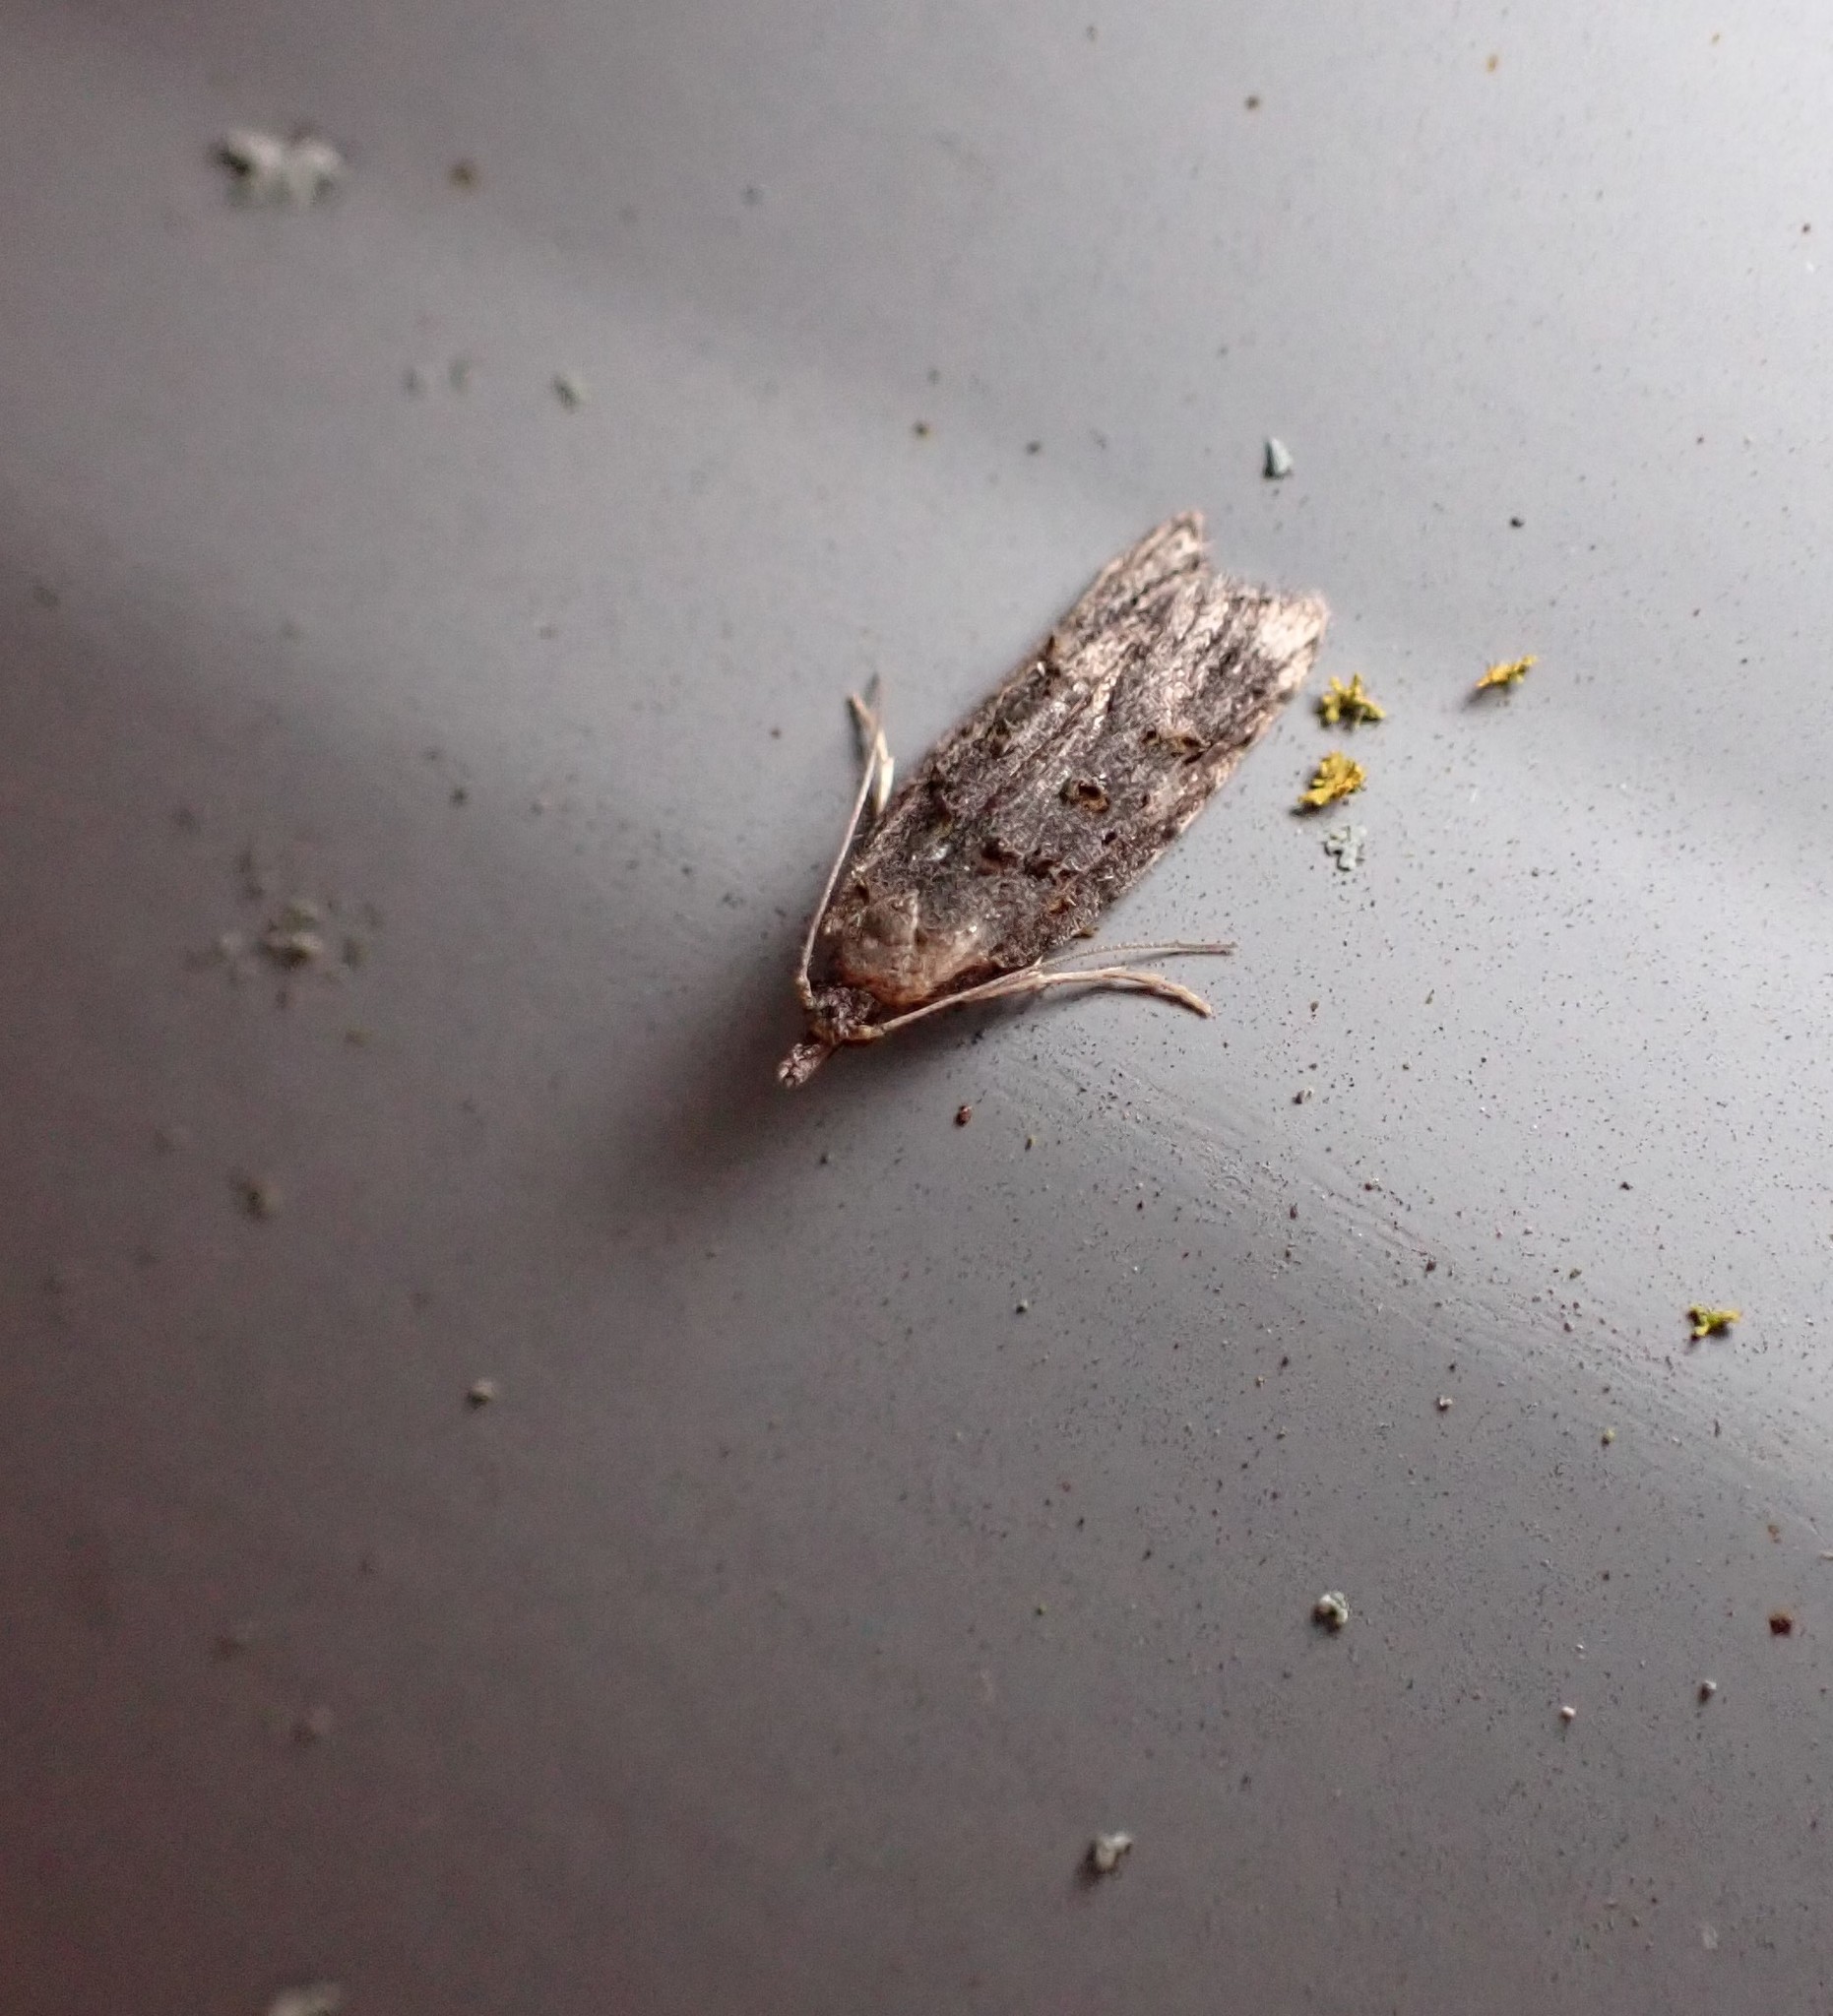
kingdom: Animalia
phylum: Arthropoda
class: Insecta
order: Lepidoptera
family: Carposinidae
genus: Carposina
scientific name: Carposina
